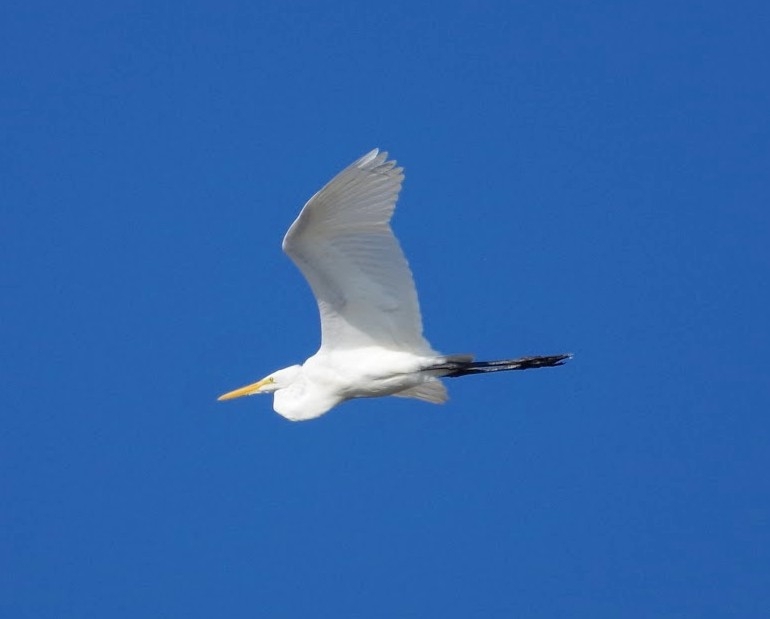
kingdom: Animalia
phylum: Chordata
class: Aves
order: Pelecaniformes
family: Ardeidae
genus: Ardea
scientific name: Ardea alba
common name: Great egret
